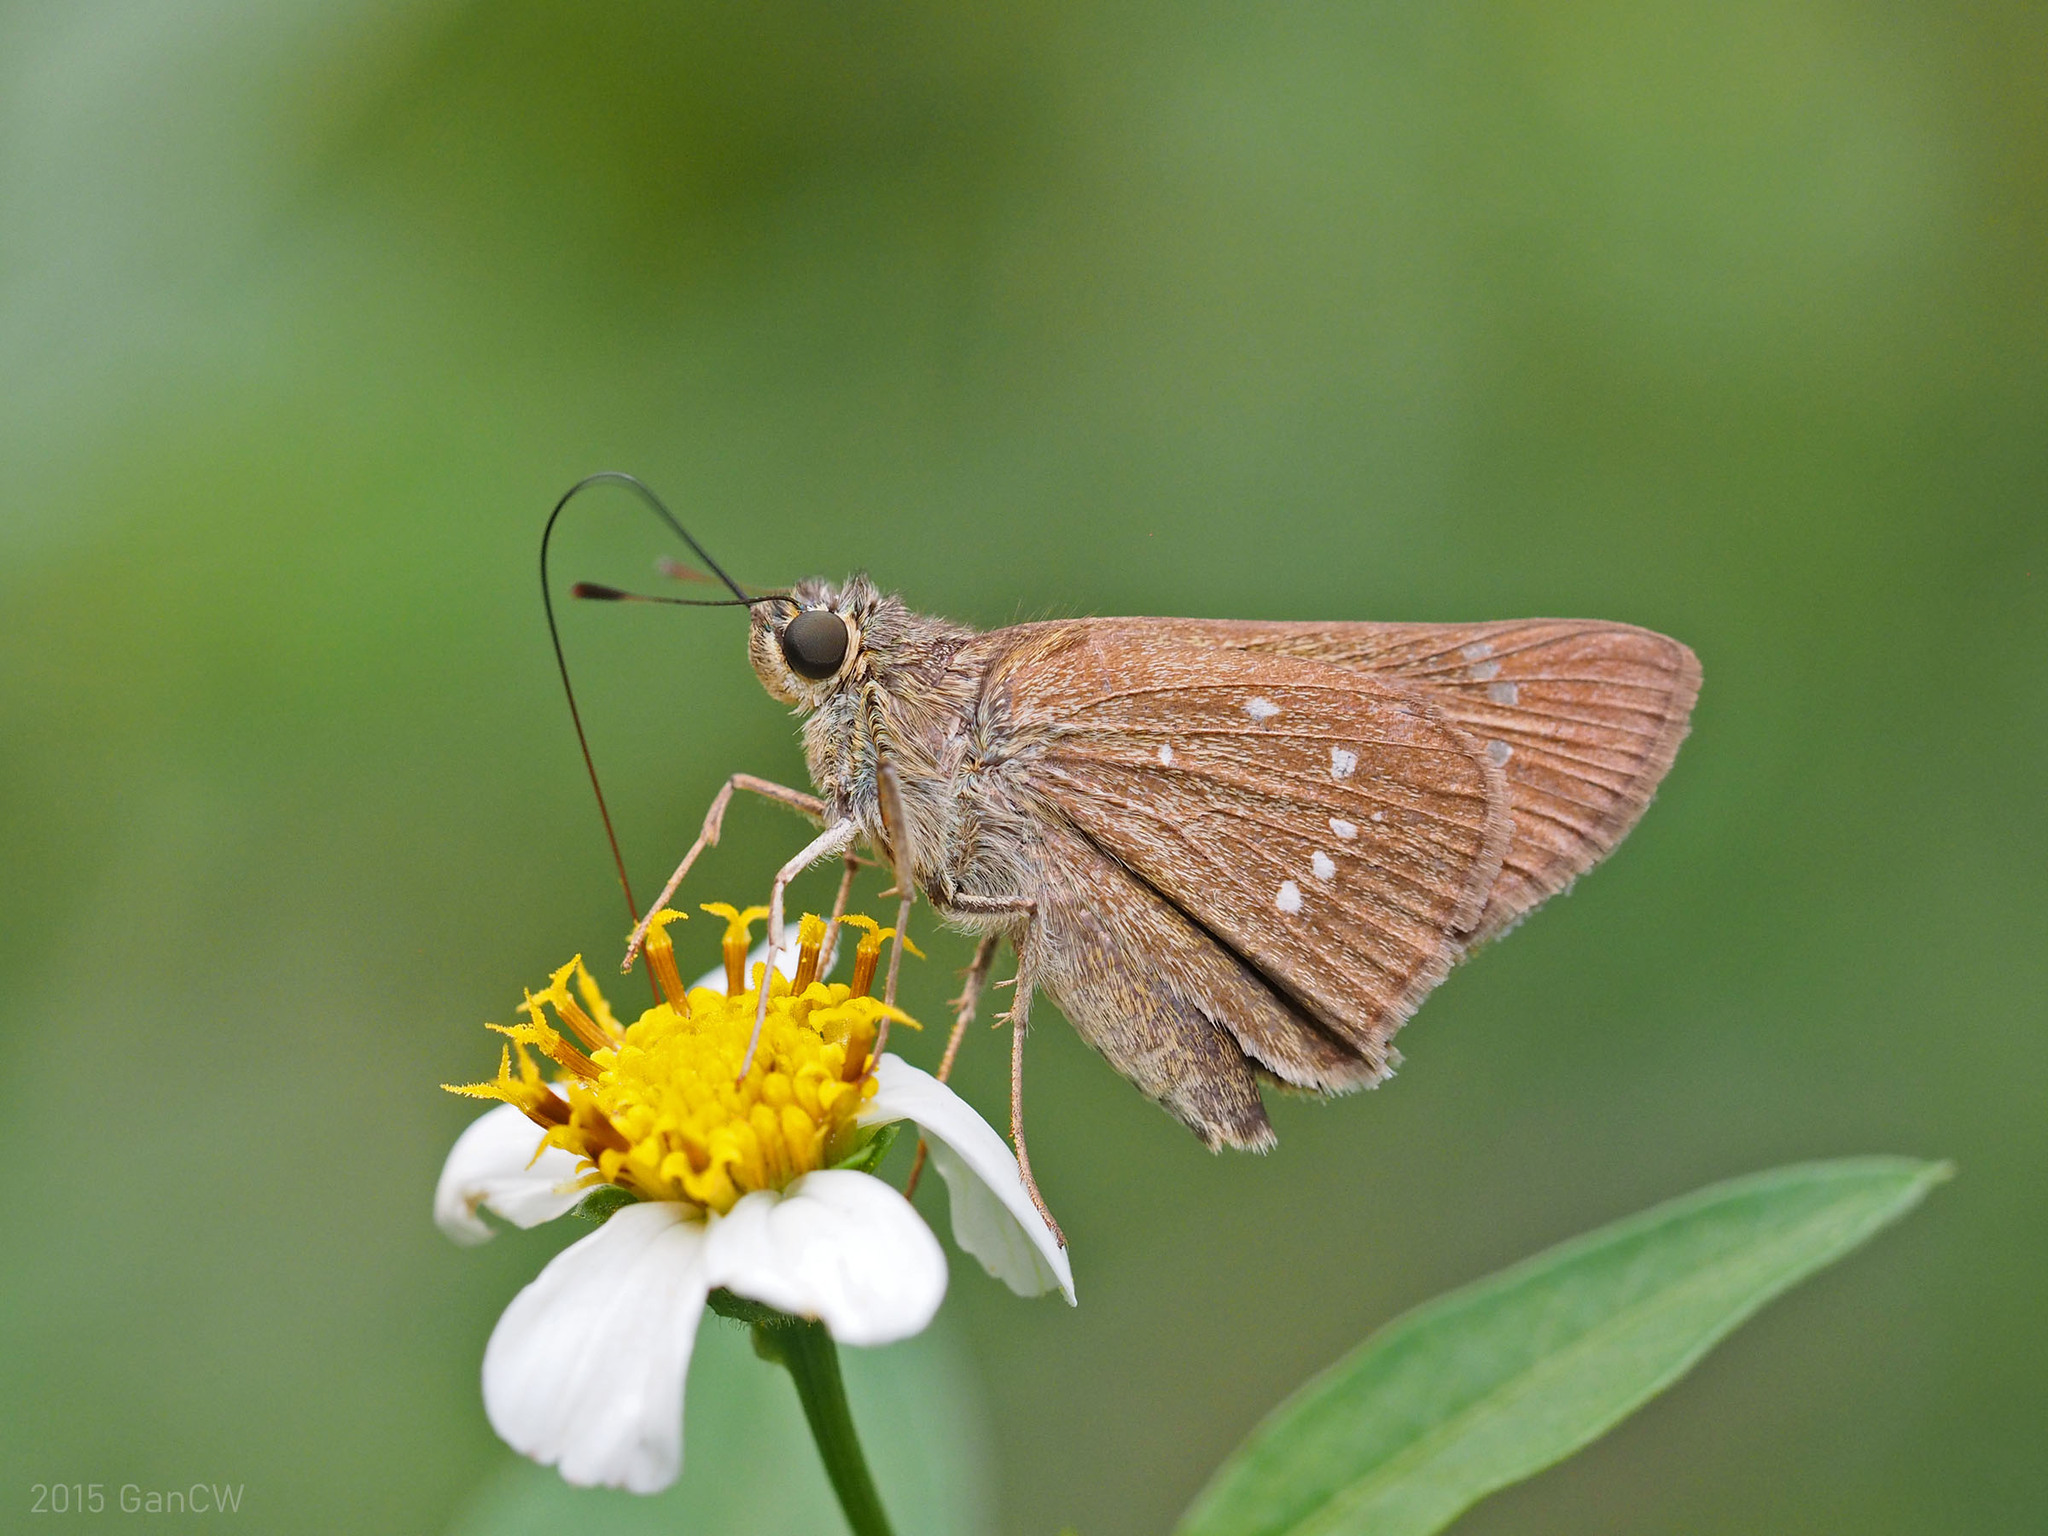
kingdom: Animalia
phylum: Arthropoda
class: Insecta
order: Lepidoptera
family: Hesperiidae
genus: Pelopidas
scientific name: Pelopidas mathias
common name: Black-branded swift
